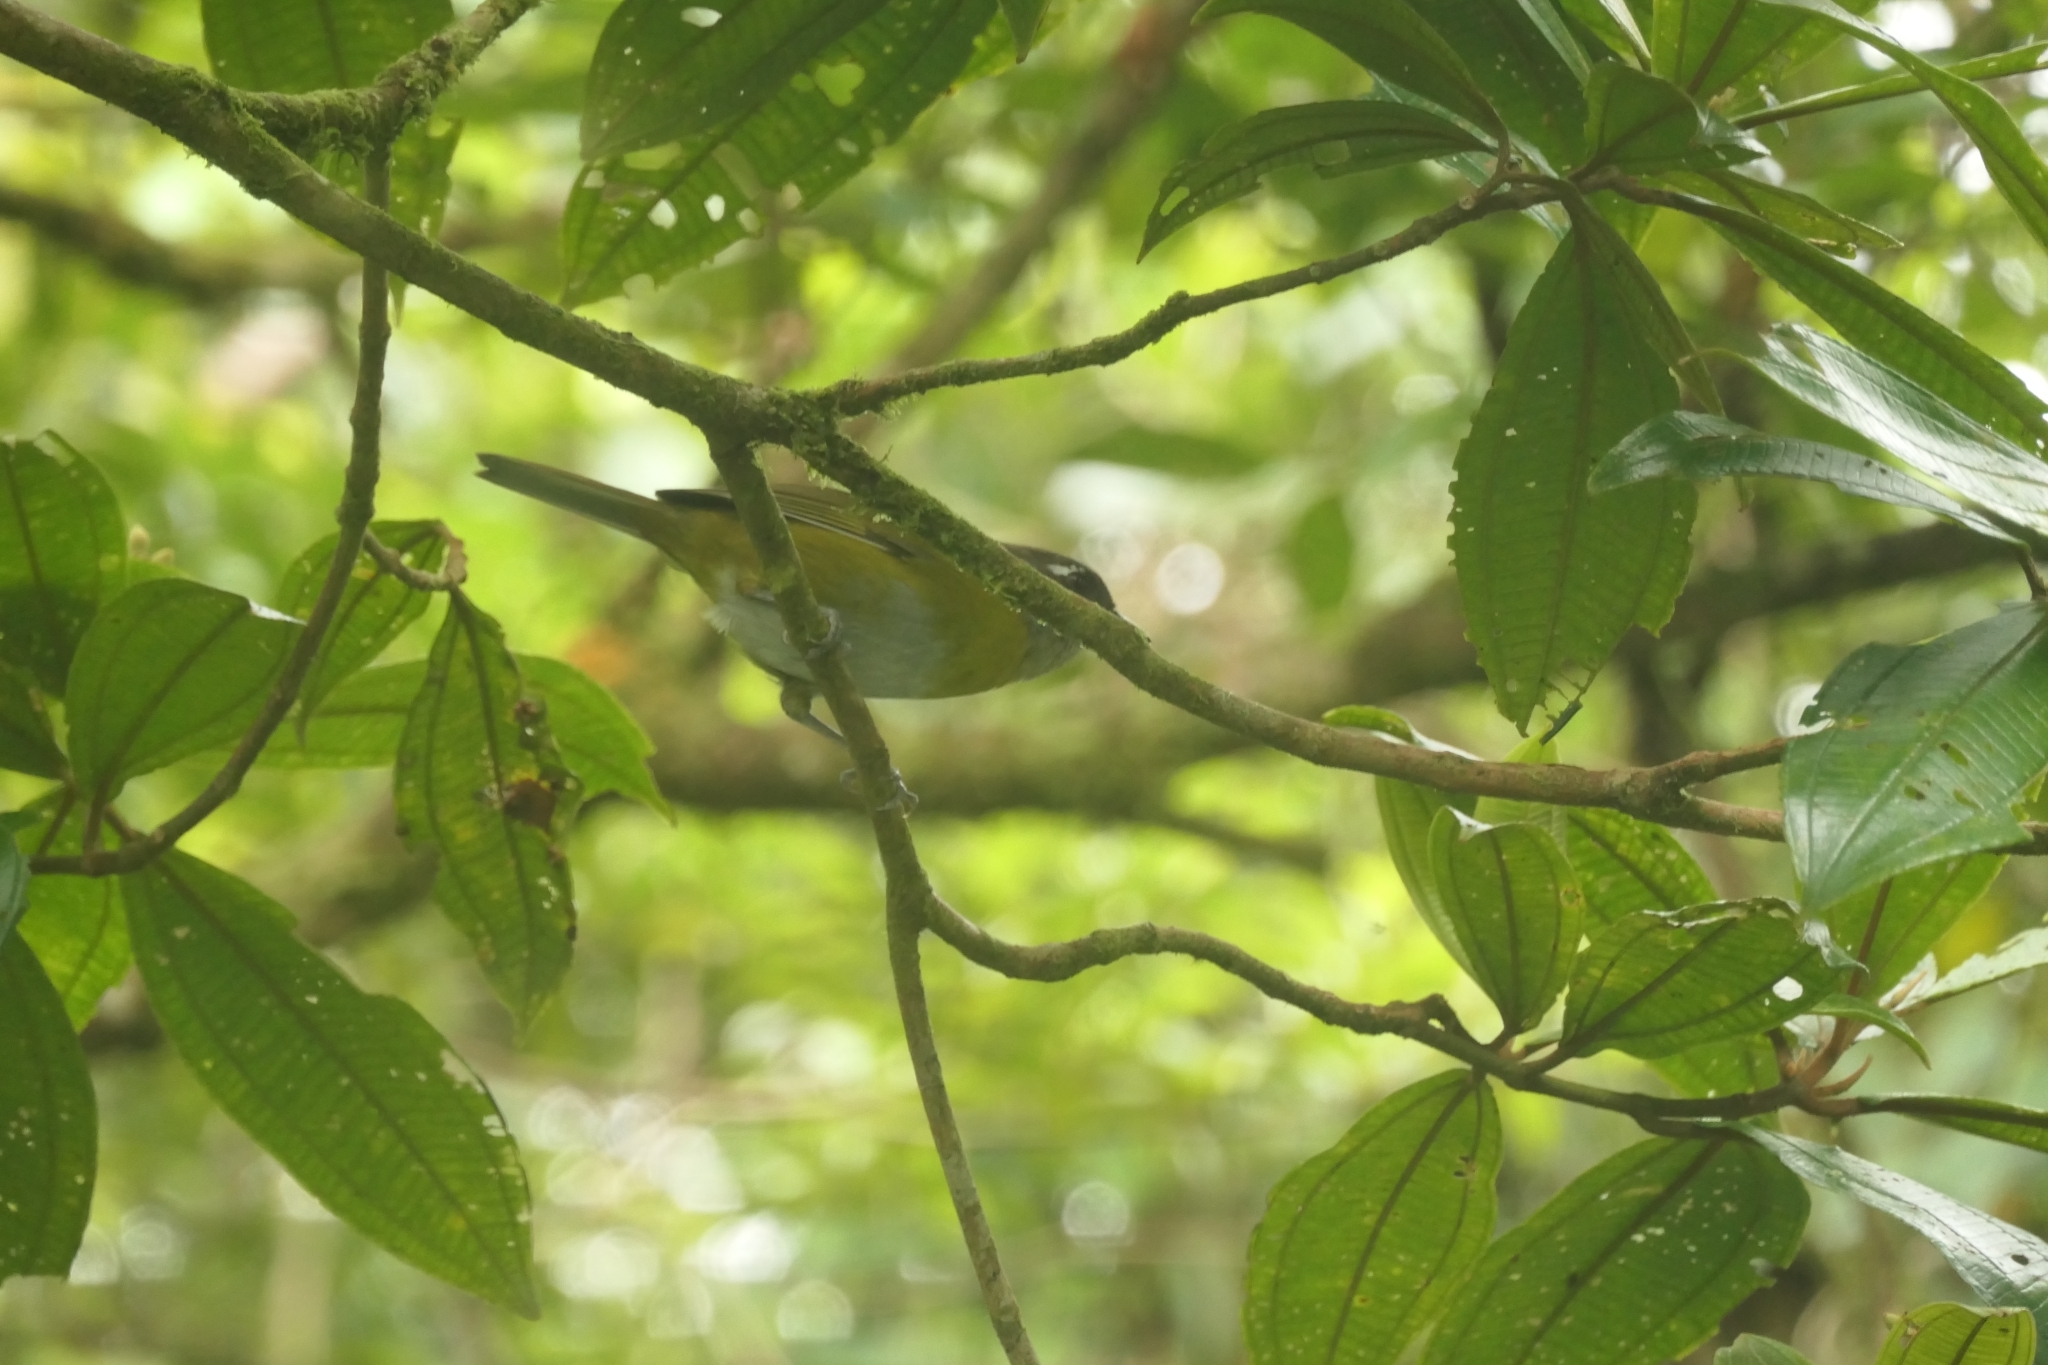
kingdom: Animalia
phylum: Chordata
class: Aves
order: Passeriformes
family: Passerellidae
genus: Chlorospingus
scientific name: Chlorospingus flavopectus
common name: Common chlorospingus
